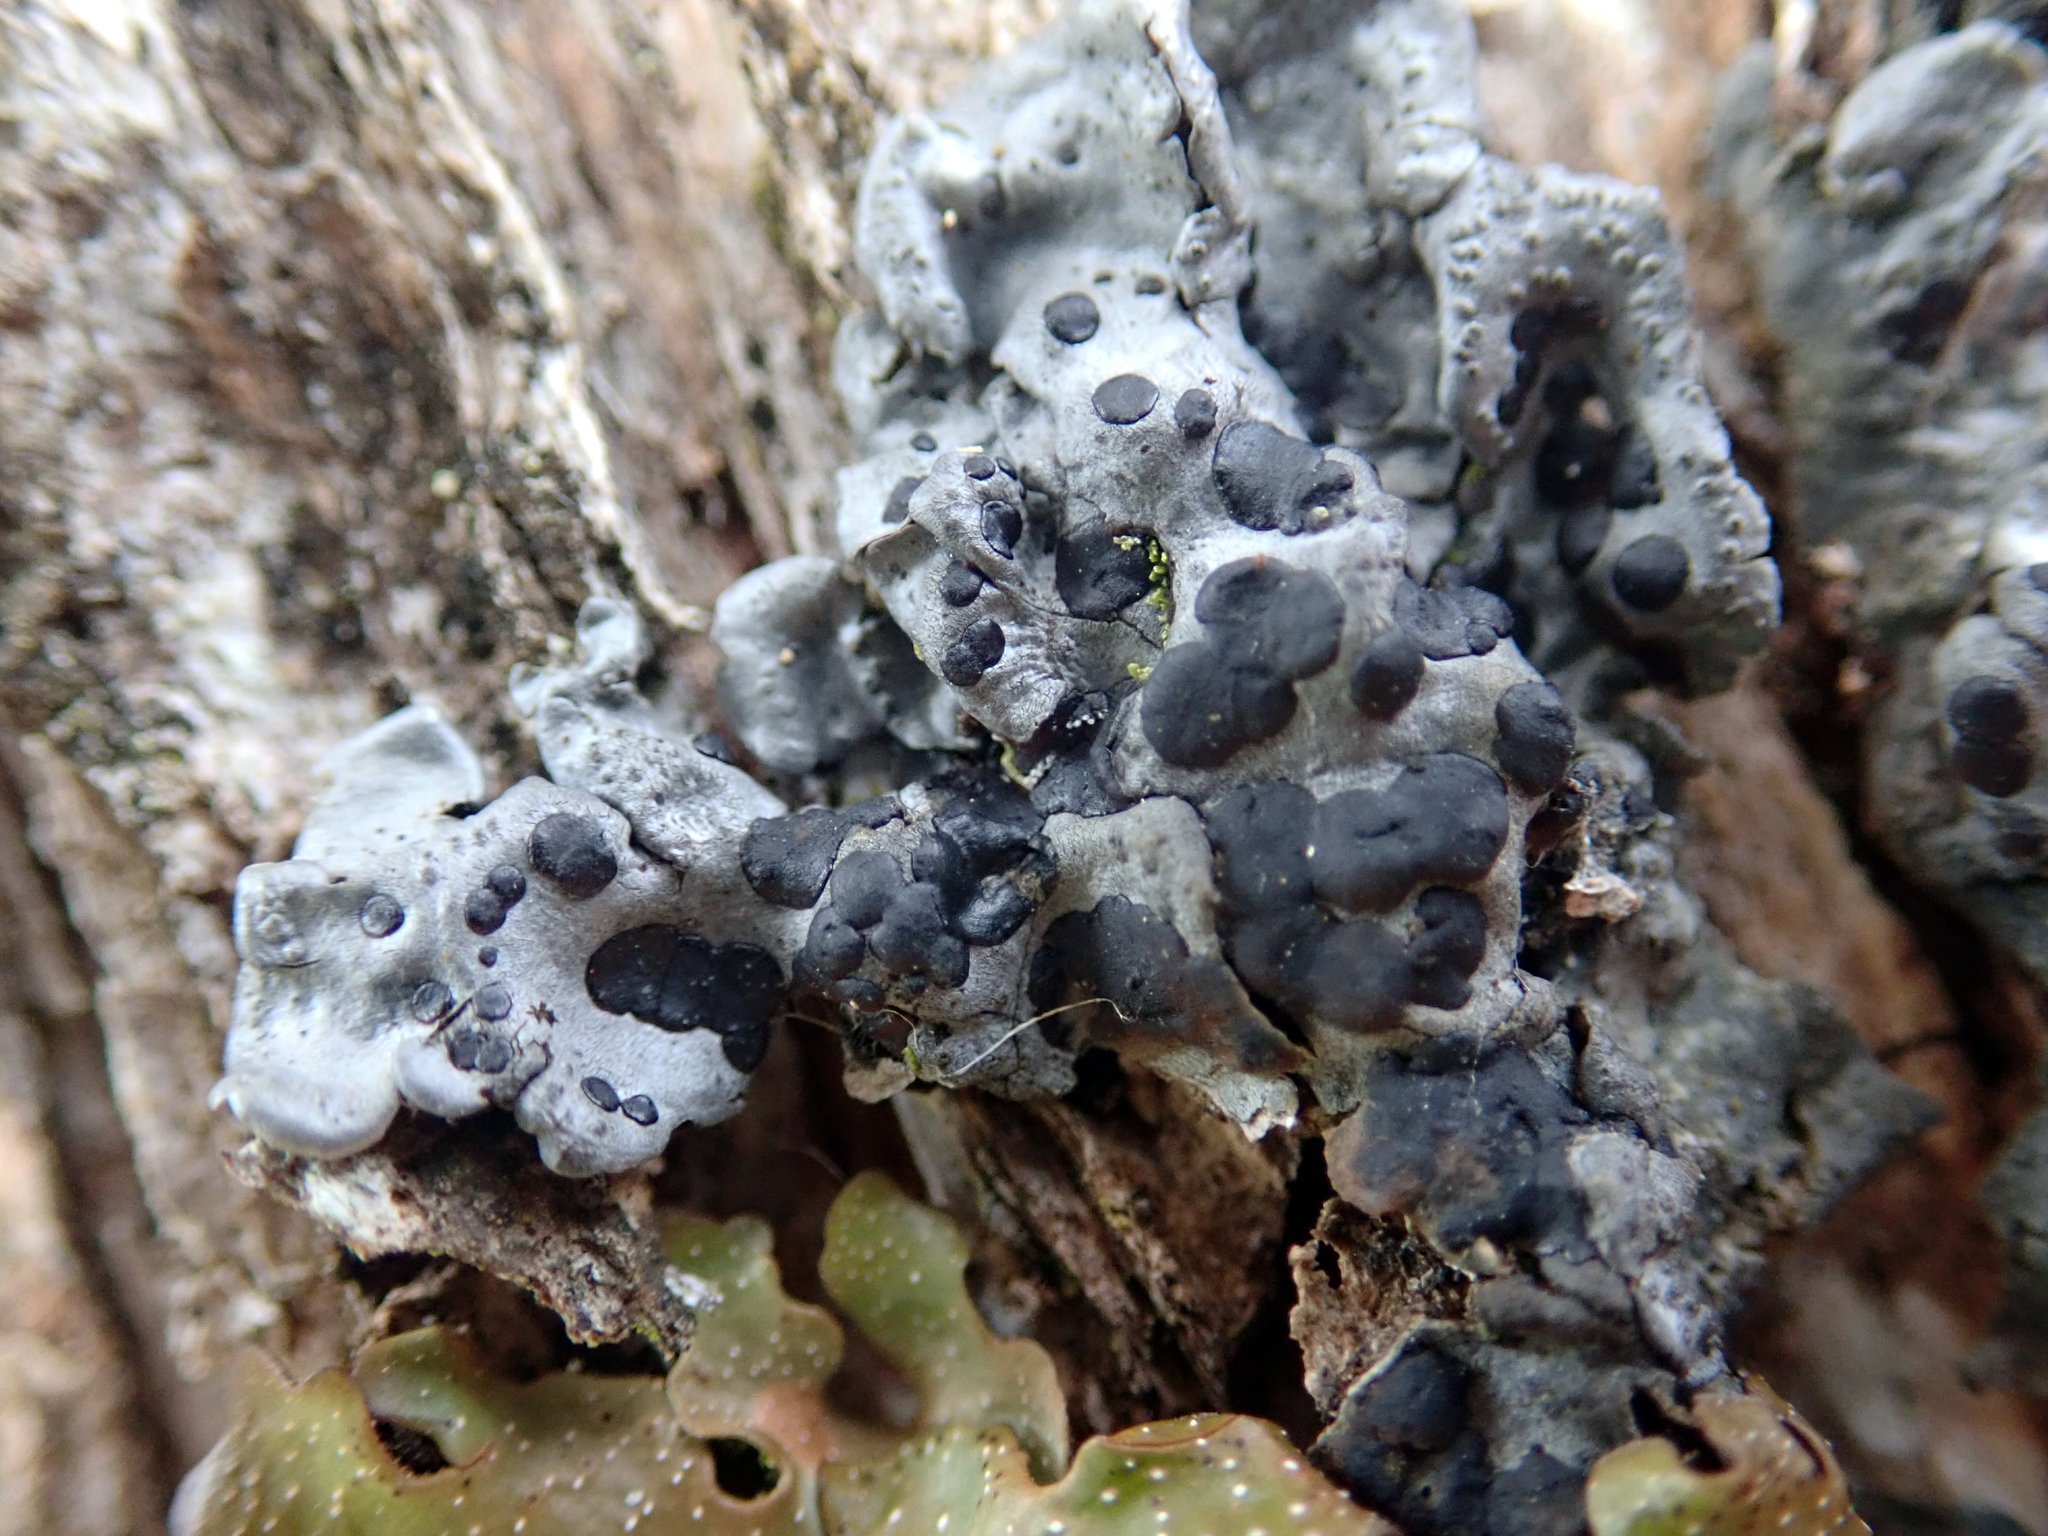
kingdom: Fungi
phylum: Ascomycota
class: Lecanoromycetes
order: Peltigerales
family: Coccocarpiaceae
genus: Coccocarpia
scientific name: Coccocarpia erythroxyli
